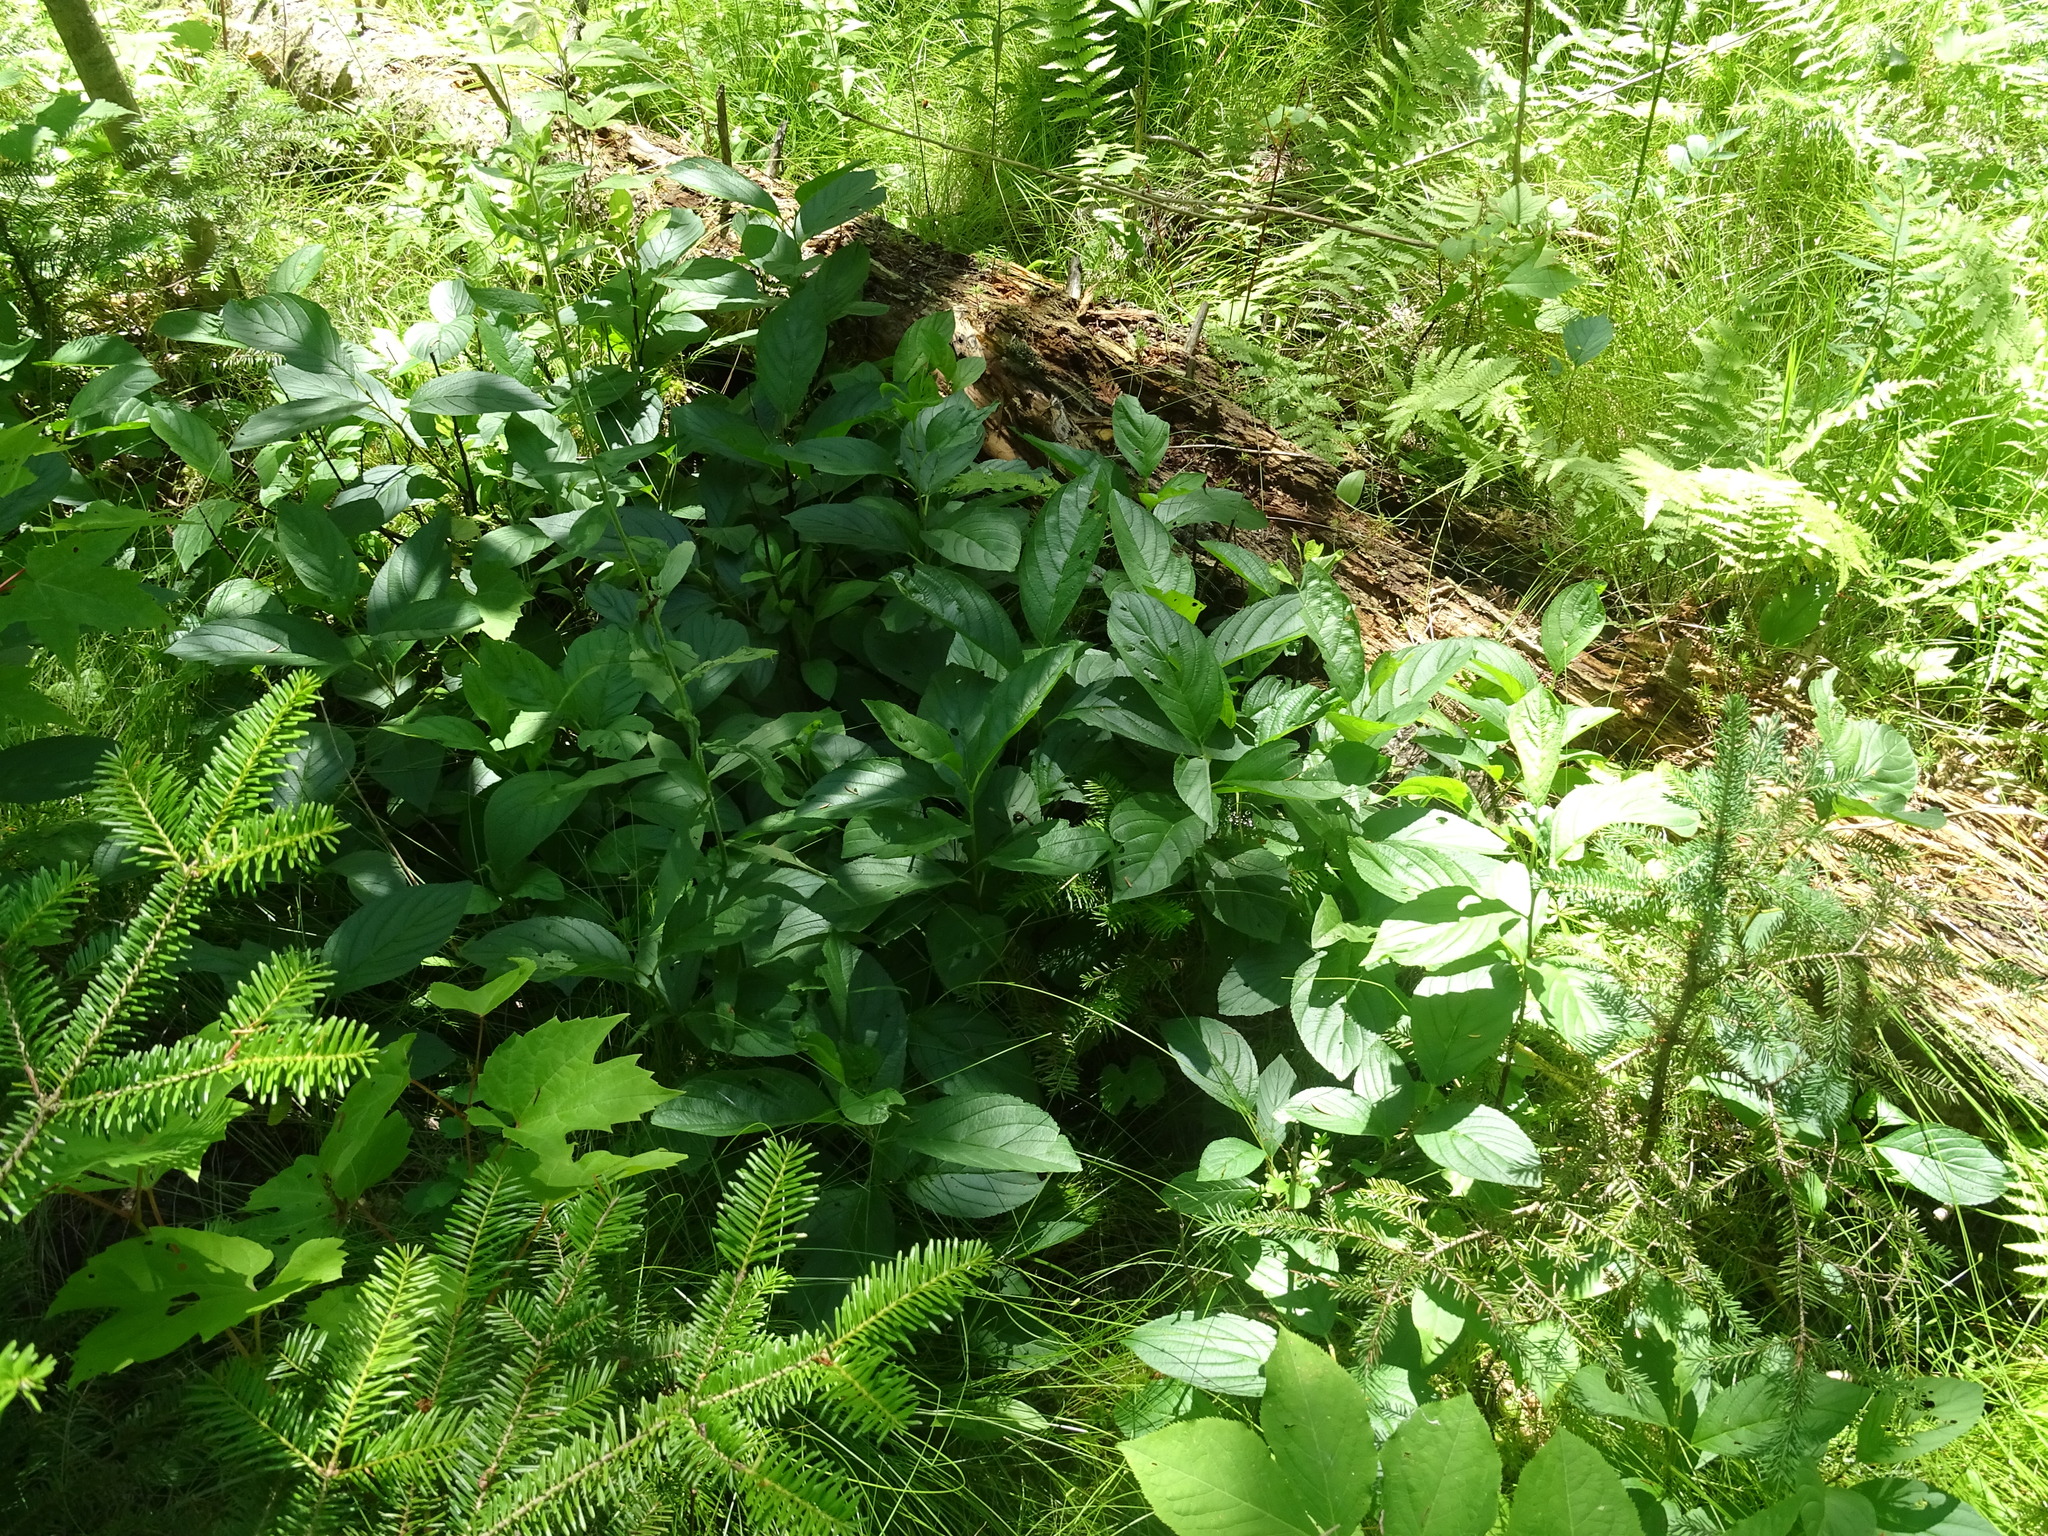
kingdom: Plantae
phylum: Tracheophyta
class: Magnoliopsida
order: Rosales
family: Rhamnaceae
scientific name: Rhamnaceae
